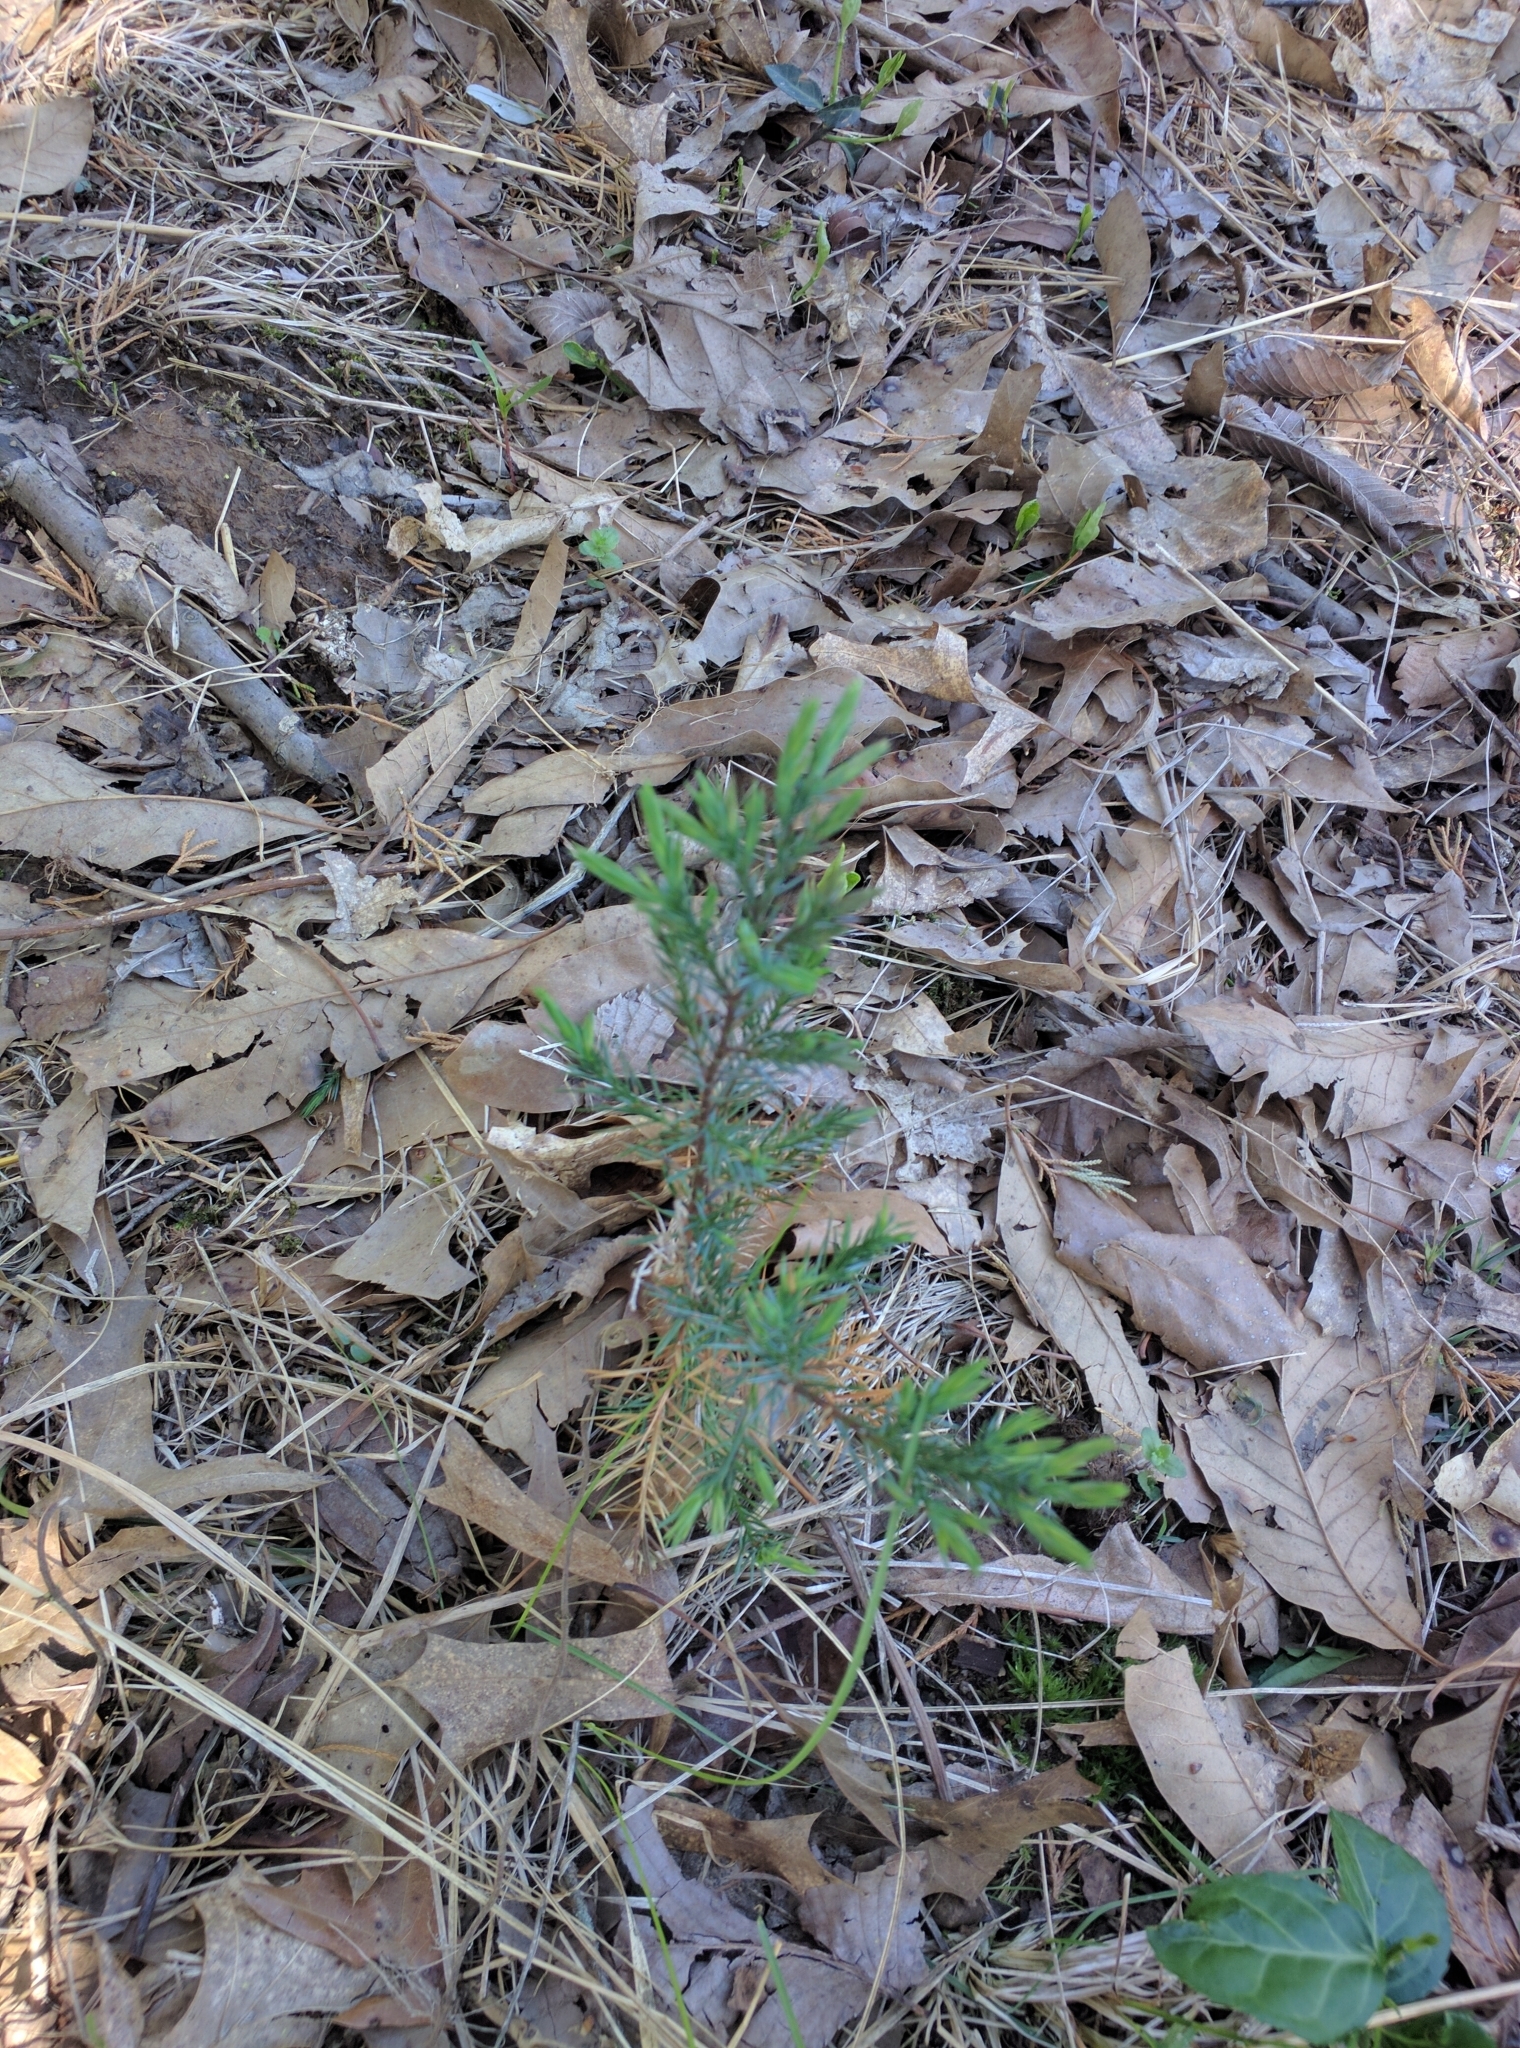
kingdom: Plantae
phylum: Tracheophyta
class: Pinopsida
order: Pinales
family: Cupressaceae
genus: Juniperus
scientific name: Juniperus virginiana
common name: Red juniper
